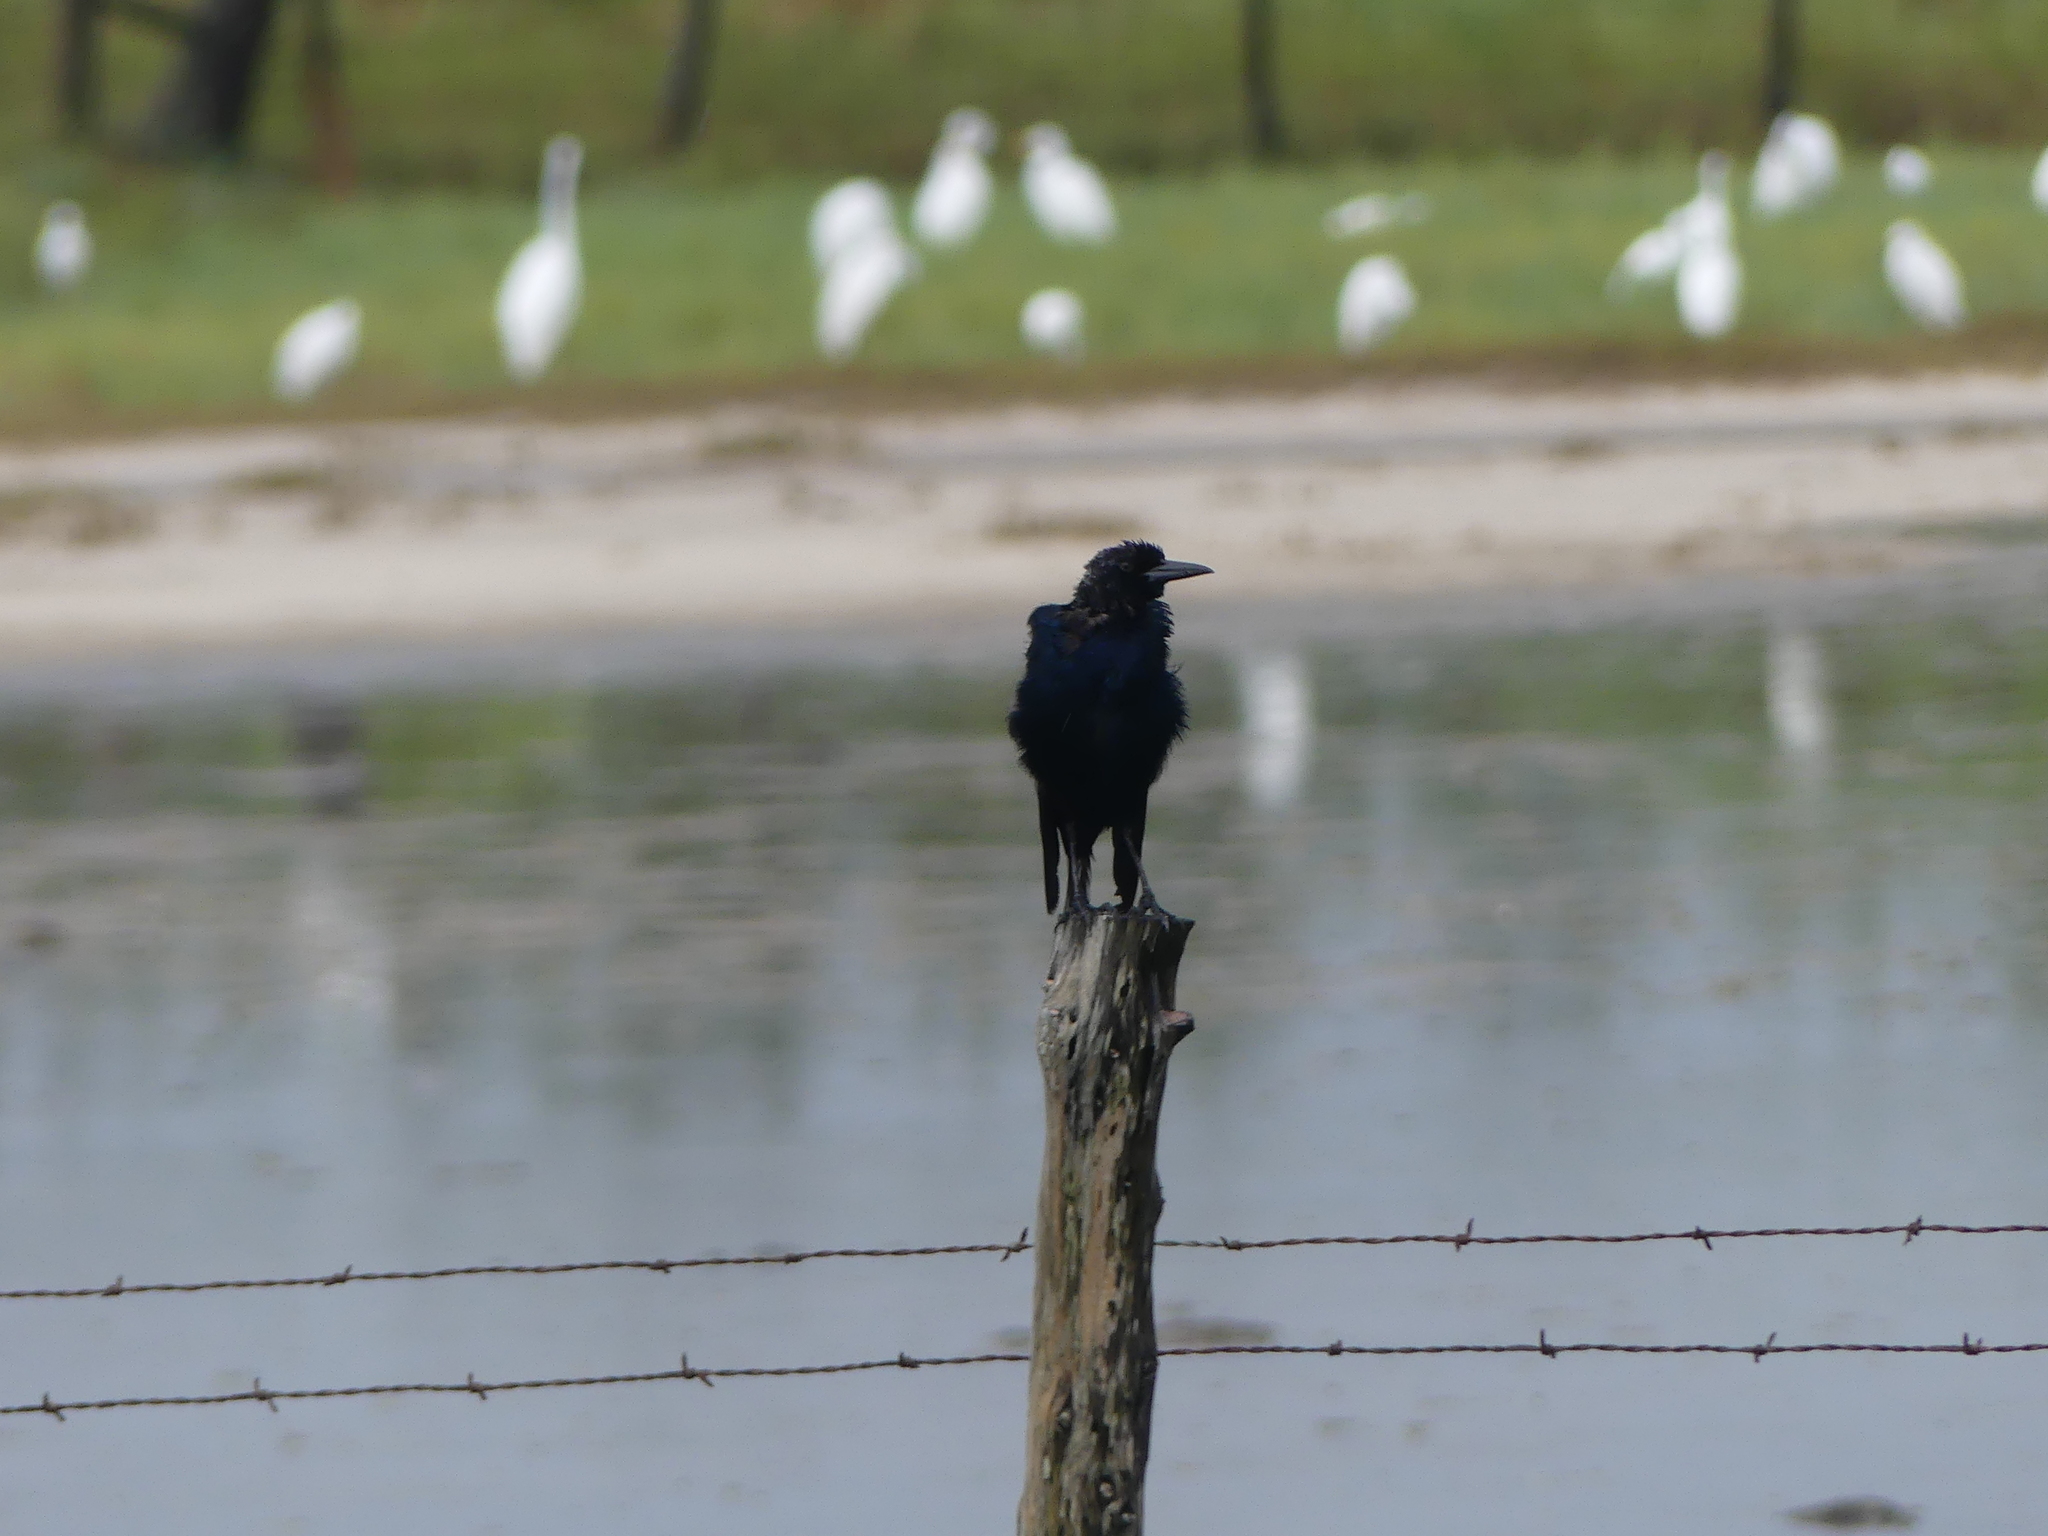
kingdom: Animalia
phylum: Chordata
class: Aves
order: Passeriformes
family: Icteridae
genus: Quiscalus
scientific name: Quiscalus major
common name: Boat-tailed grackle
